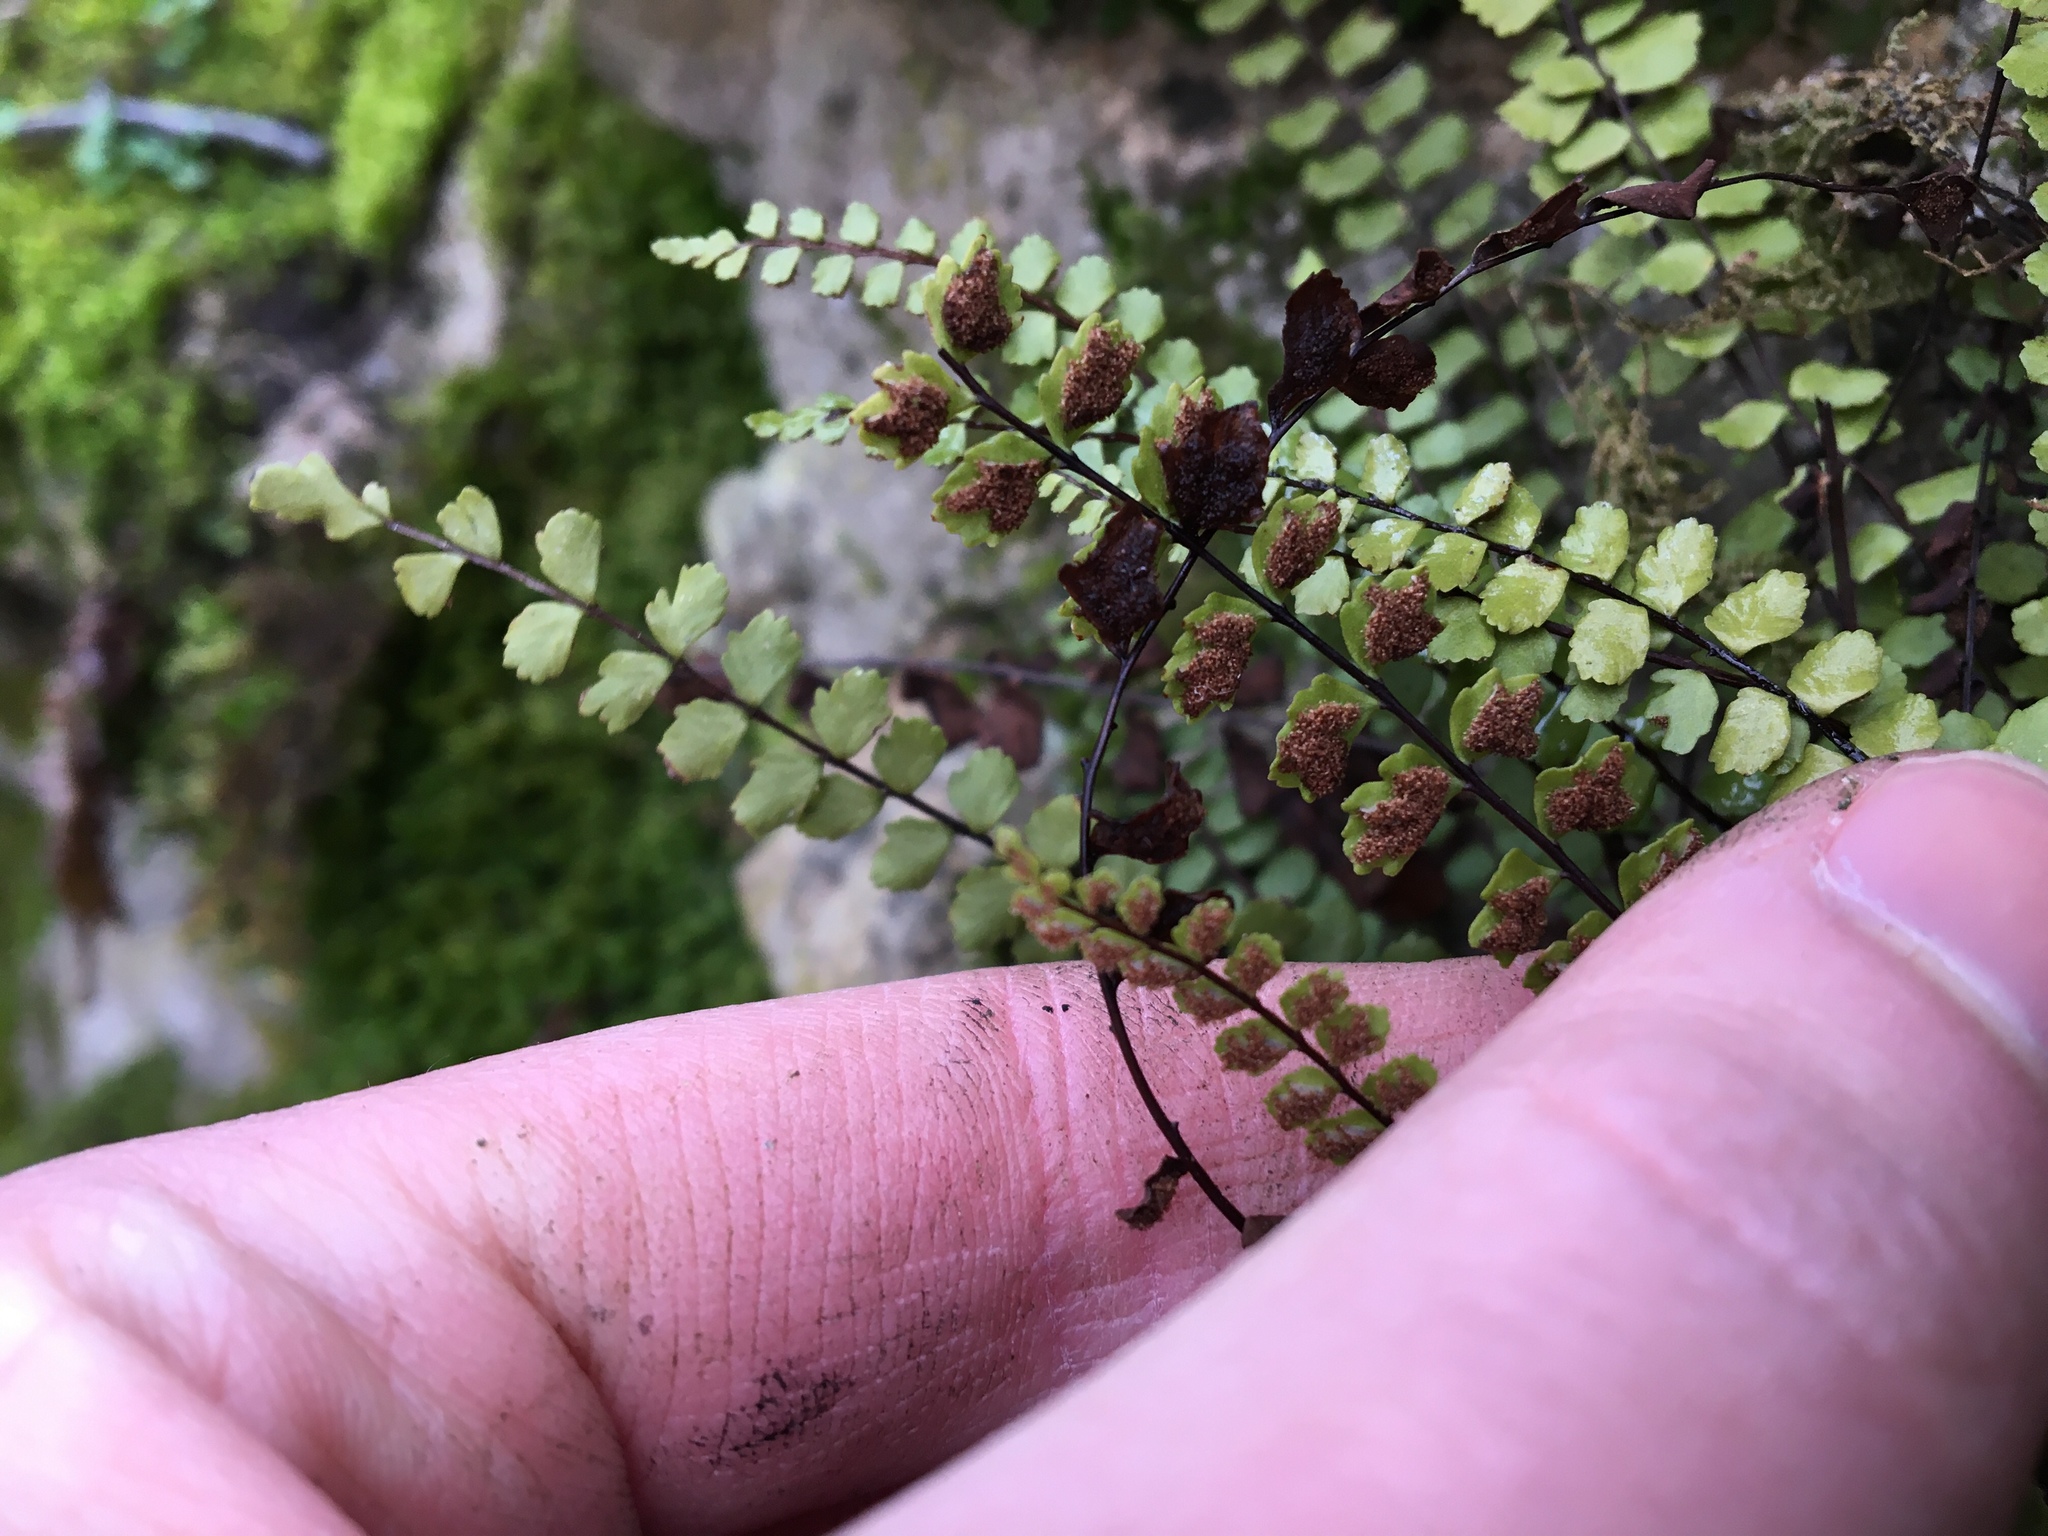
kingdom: Plantae
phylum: Tracheophyta
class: Polypodiopsida
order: Polypodiales
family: Aspleniaceae
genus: Asplenium
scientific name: Asplenium trichomanes
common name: Maidenhair spleenwort
